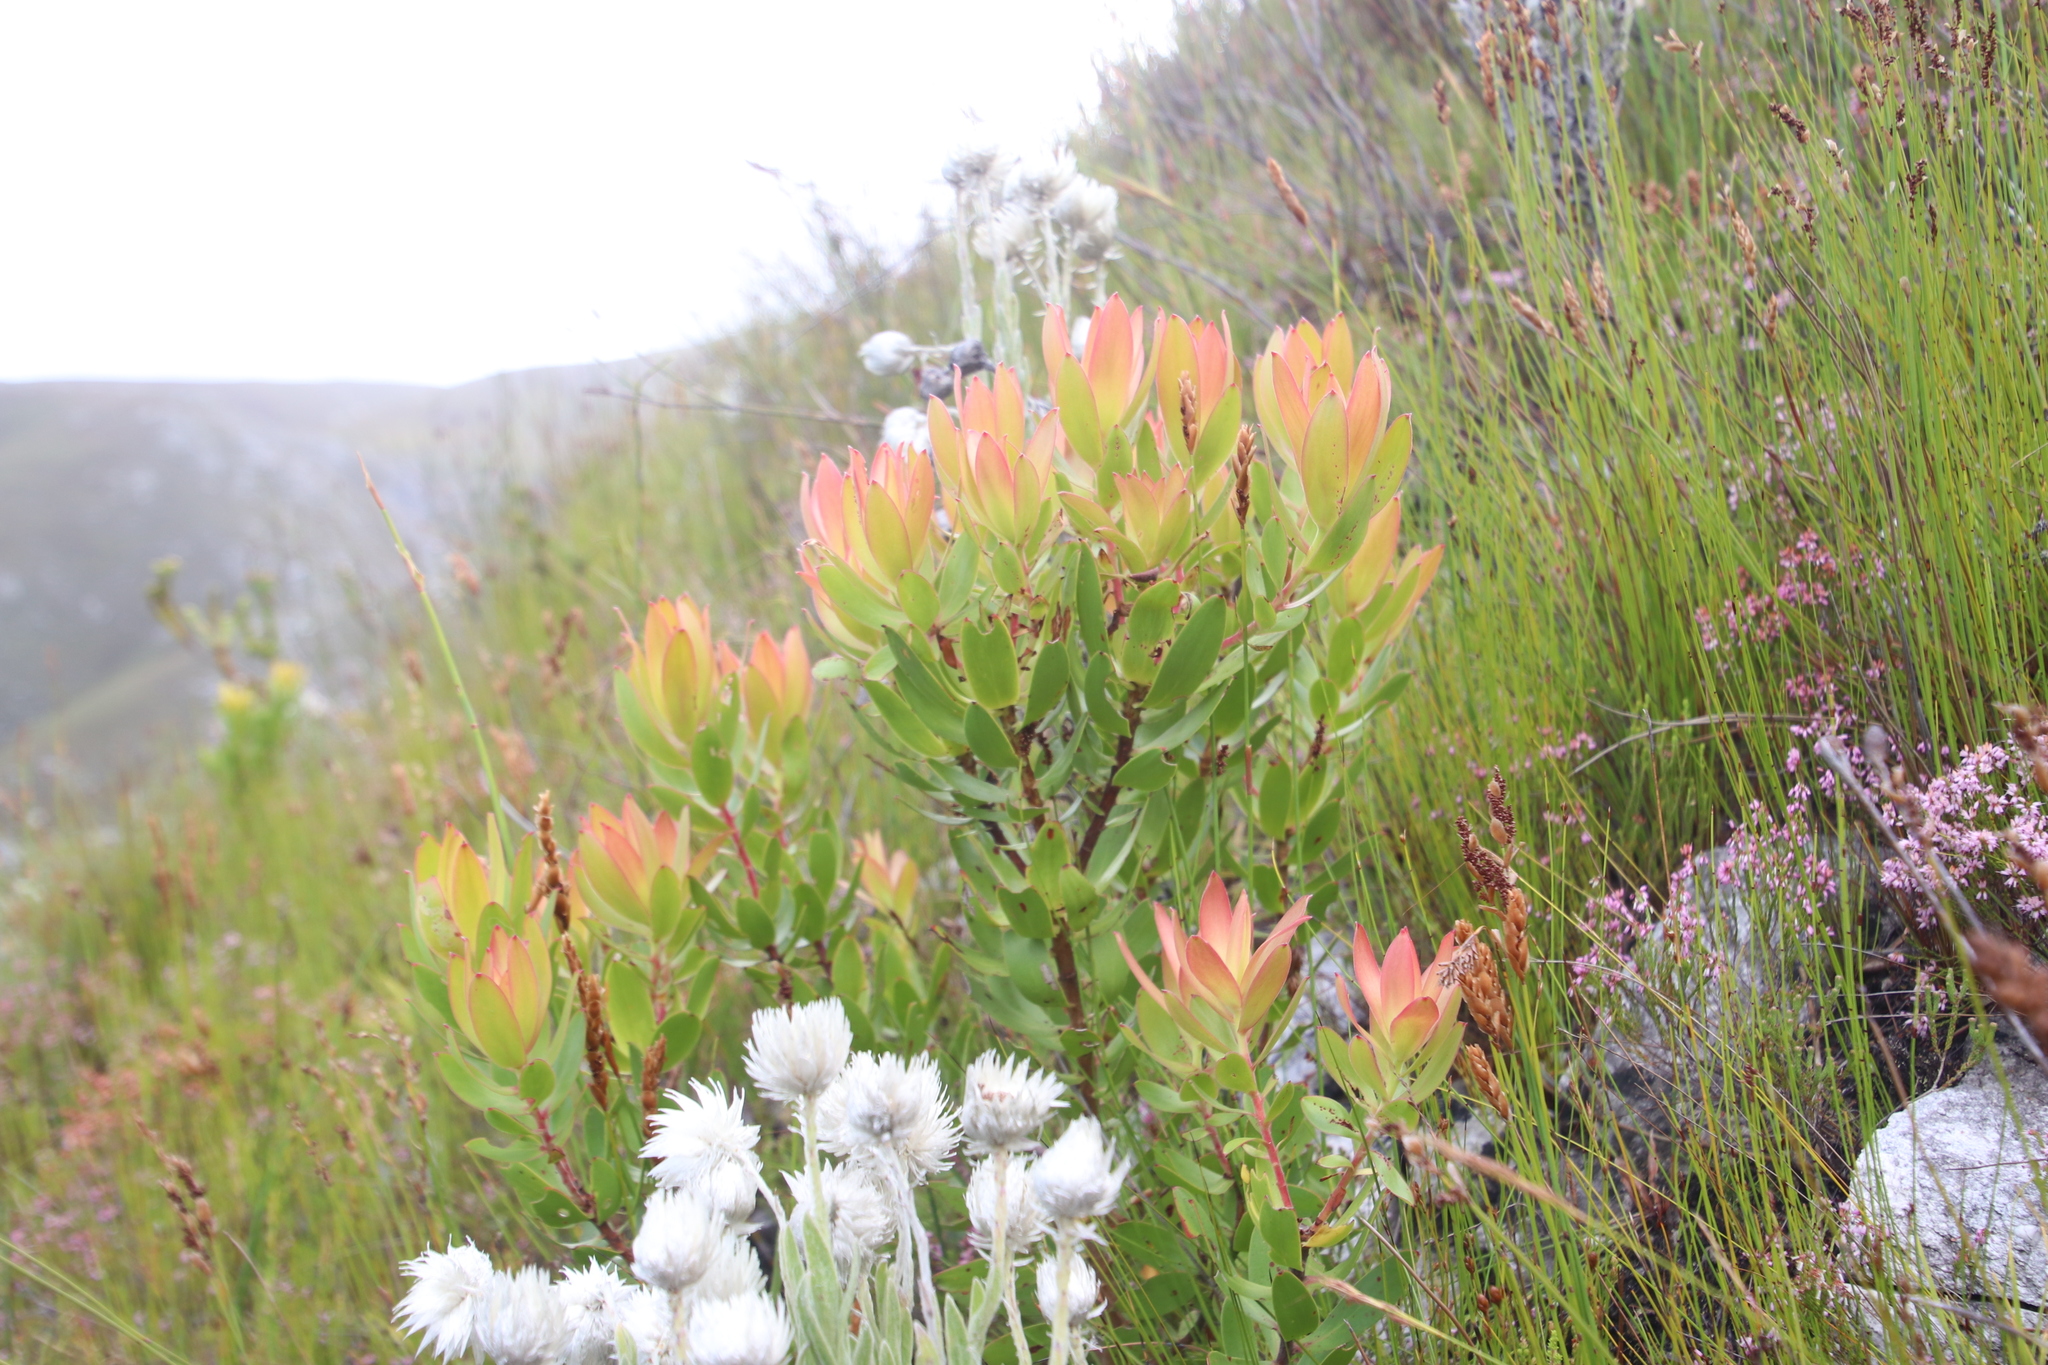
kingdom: Plantae
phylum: Tracheophyta
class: Magnoliopsida
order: Proteales
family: Proteaceae
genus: Leucadendron
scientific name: Leucadendron gandogeri
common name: Broad-leaf conebush
